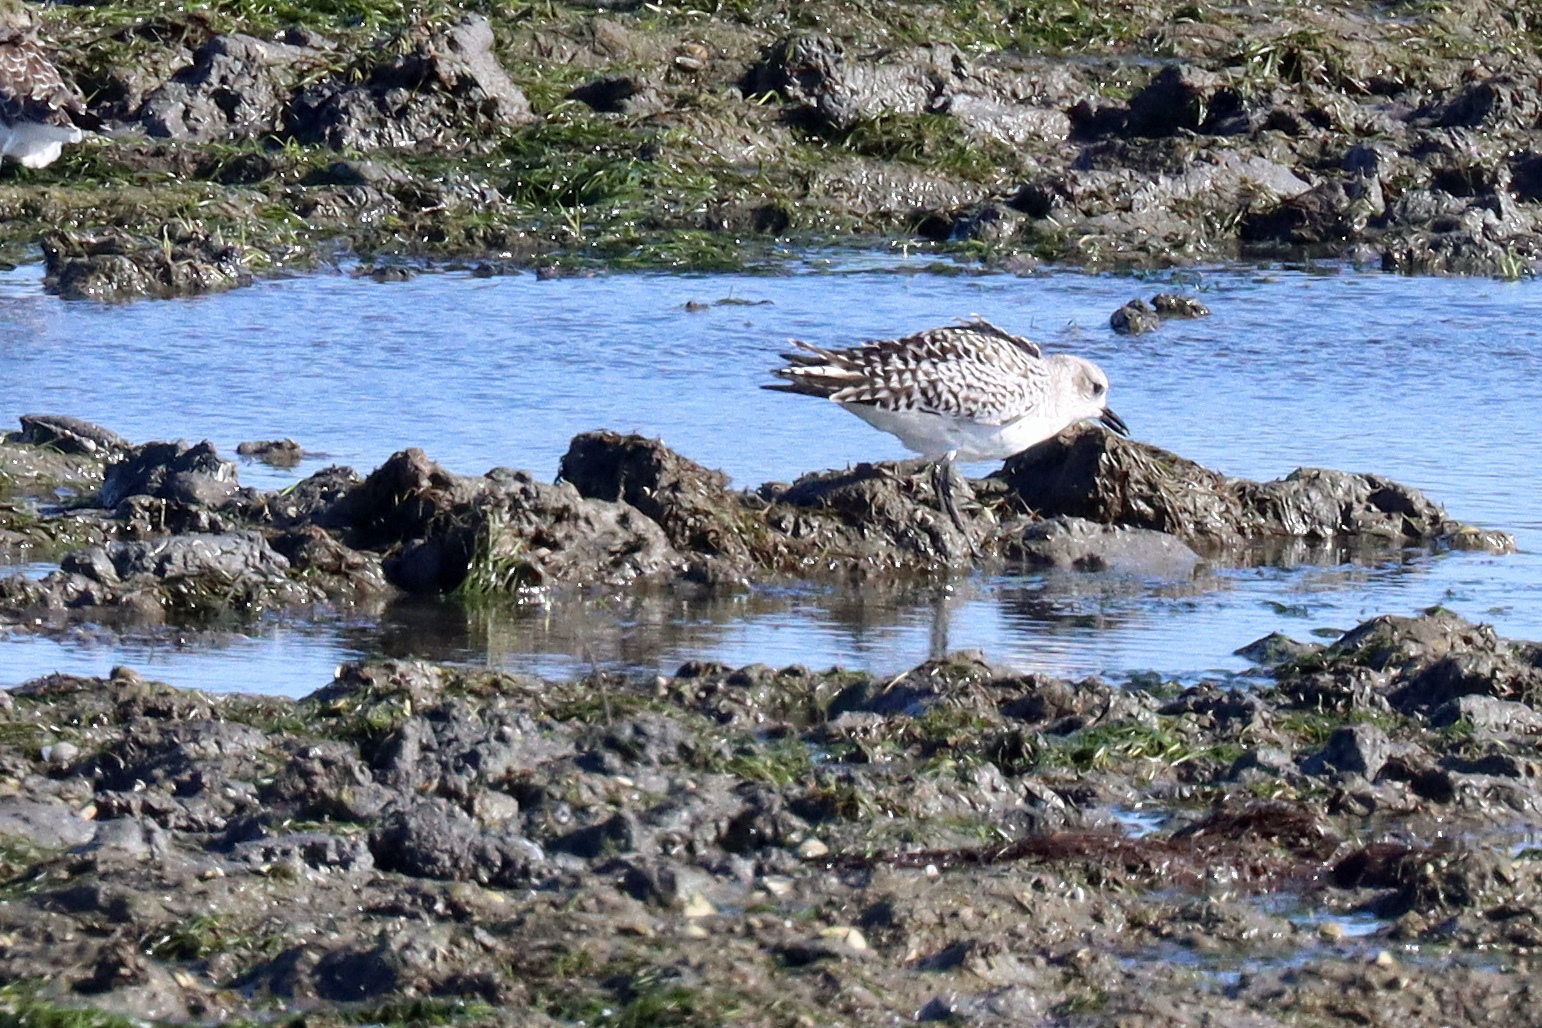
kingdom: Animalia
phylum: Chordata
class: Aves
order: Charadriiformes
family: Charadriidae
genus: Pluvialis
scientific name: Pluvialis squatarola
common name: Grey plover
